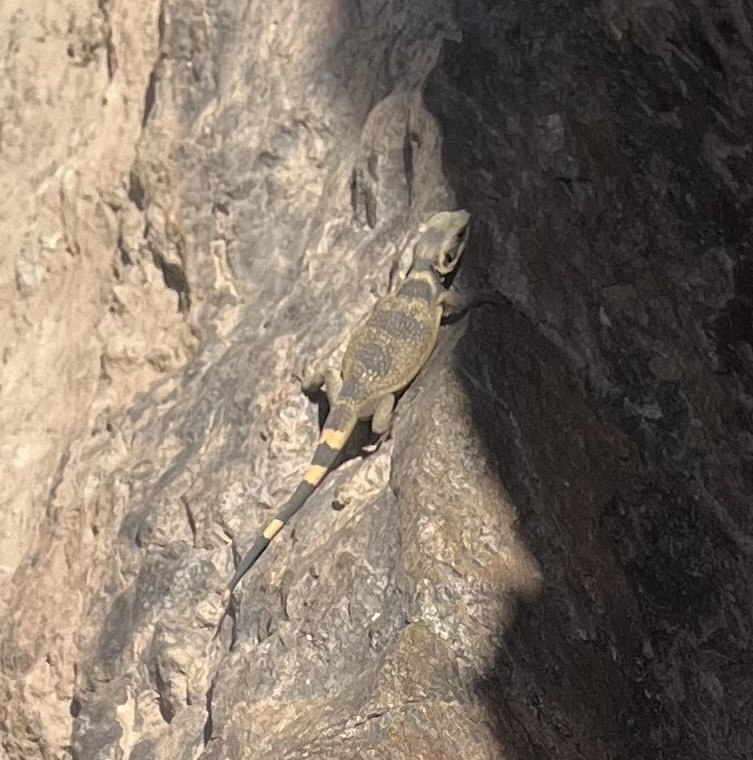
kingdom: Animalia
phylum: Chordata
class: Squamata
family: Iguanidae
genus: Sauromalus
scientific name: Sauromalus ater
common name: Northern chuckwalla
